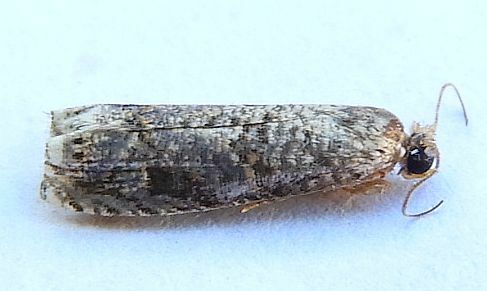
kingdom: Animalia
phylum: Arthropoda
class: Insecta
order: Lepidoptera
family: Tortricidae
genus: Episimus
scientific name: Episimus argutana
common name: Sumac leaftier moth
